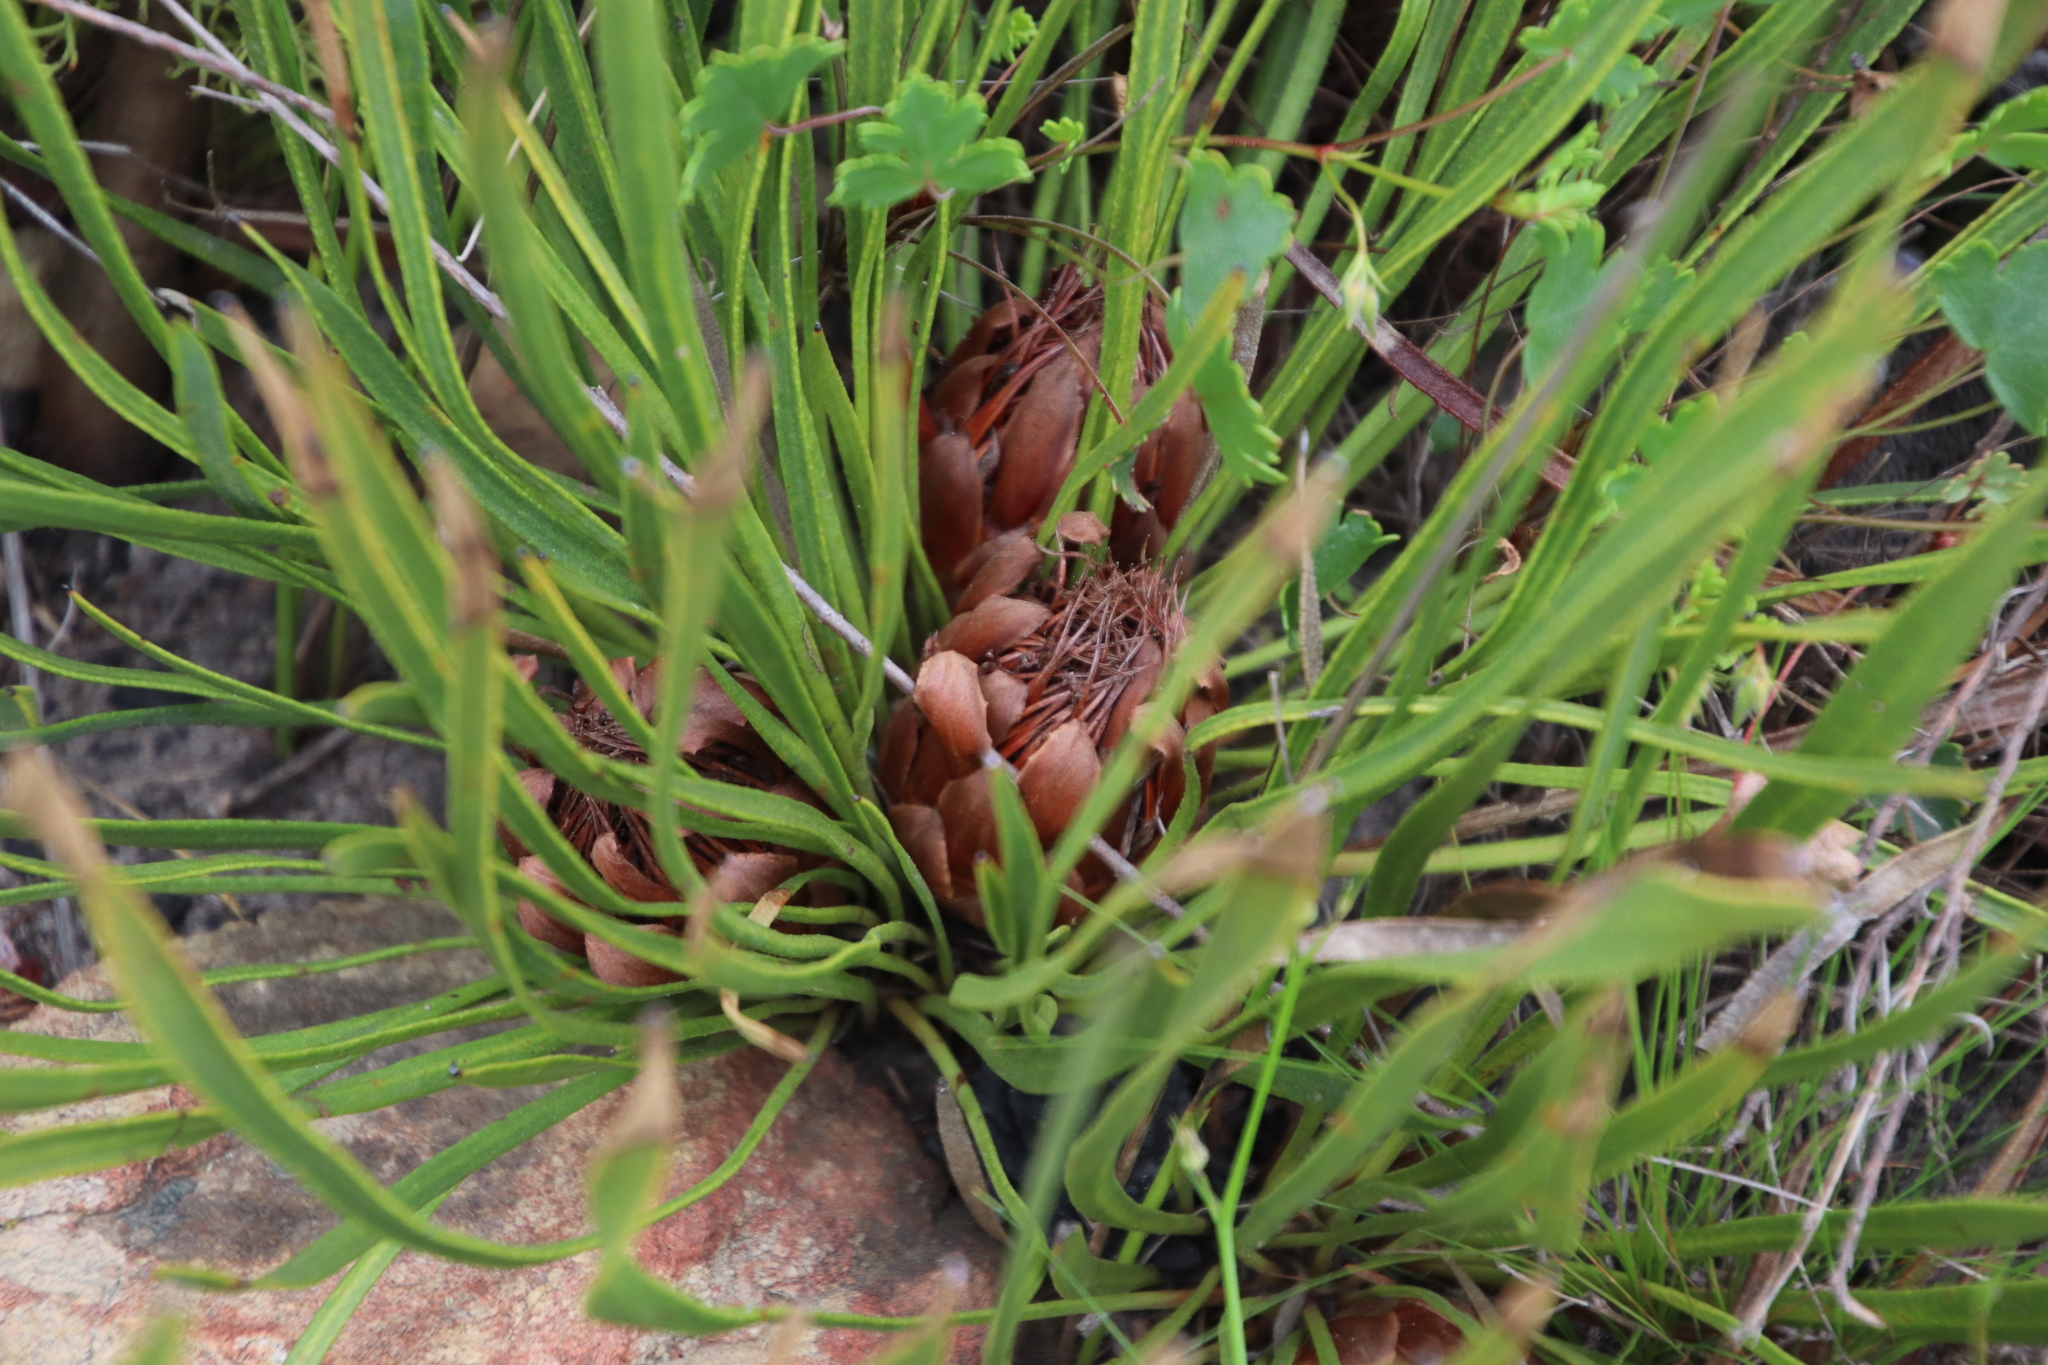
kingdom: Plantae
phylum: Tracheophyta
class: Magnoliopsida
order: Proteales
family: Proteaceae
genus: Protea
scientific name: Protea scabra
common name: Sandpaper-leaf sugarbush
